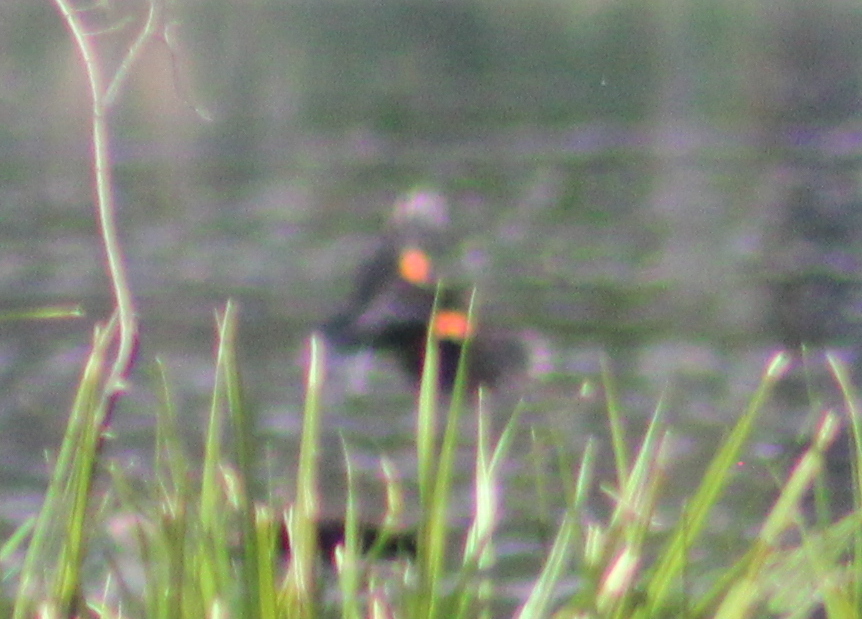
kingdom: Animalia
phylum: Chordata
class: Aves
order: Passeriformes
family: Icteridae
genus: Agelaius
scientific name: Agelaius phoeniceus
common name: Red-winged blackbird
